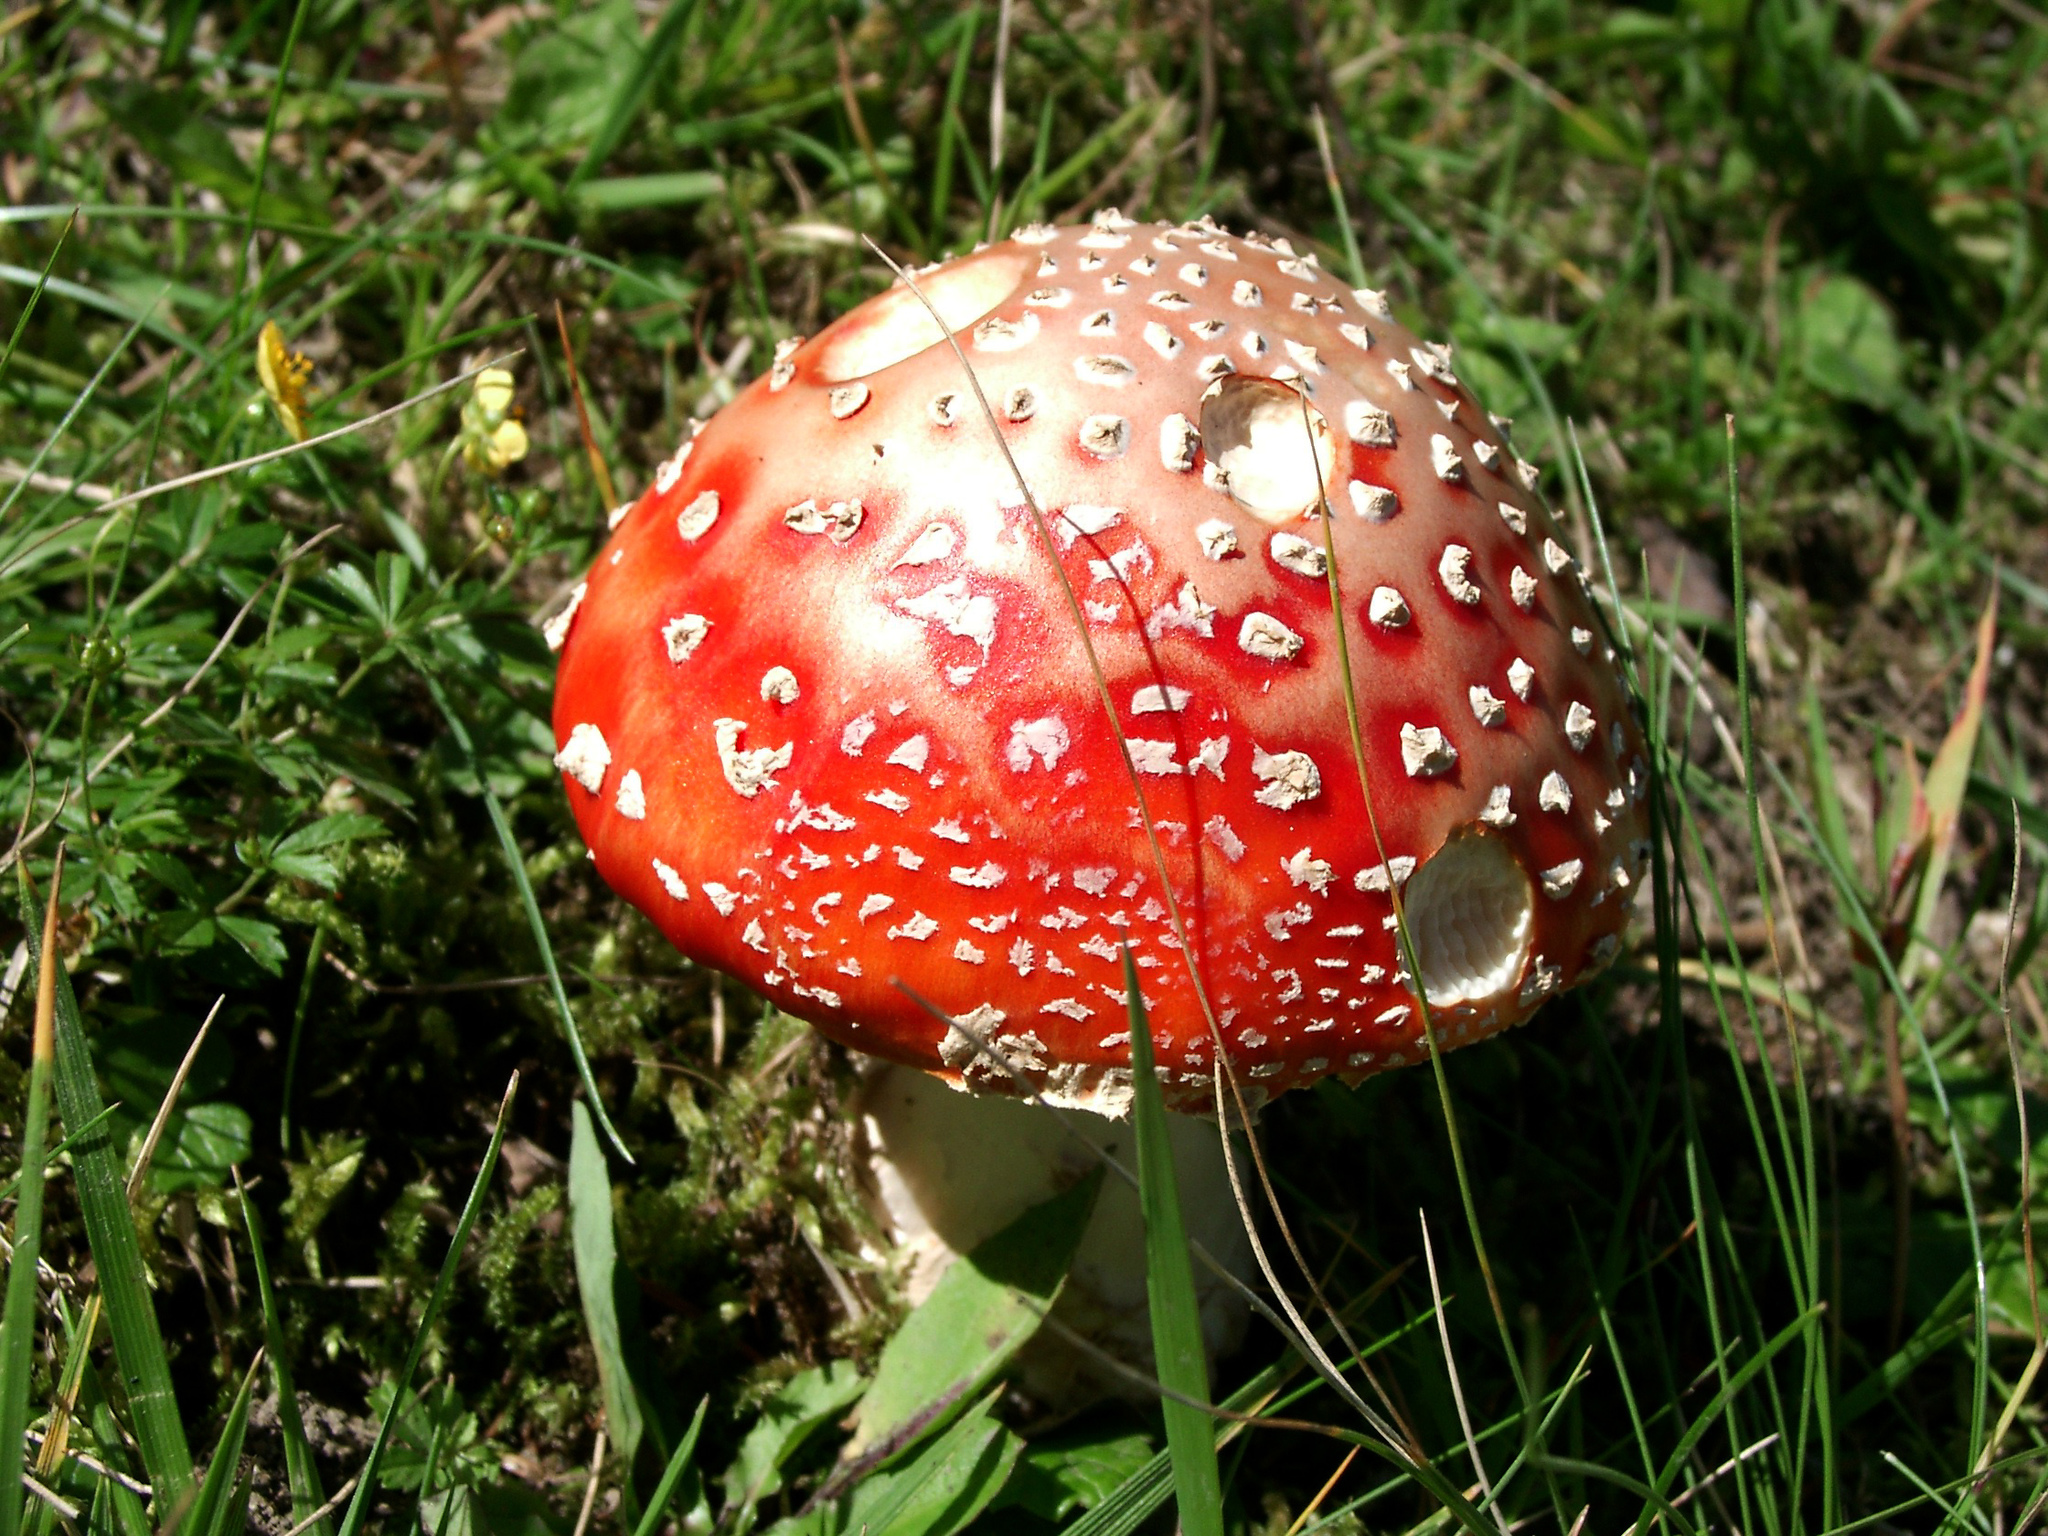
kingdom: Fungi
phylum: Basidiomycota
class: Agaricomycetes
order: Agaricales
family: Amanitaceae
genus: Amanita
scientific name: Amanita muscaria
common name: Fly agaric
